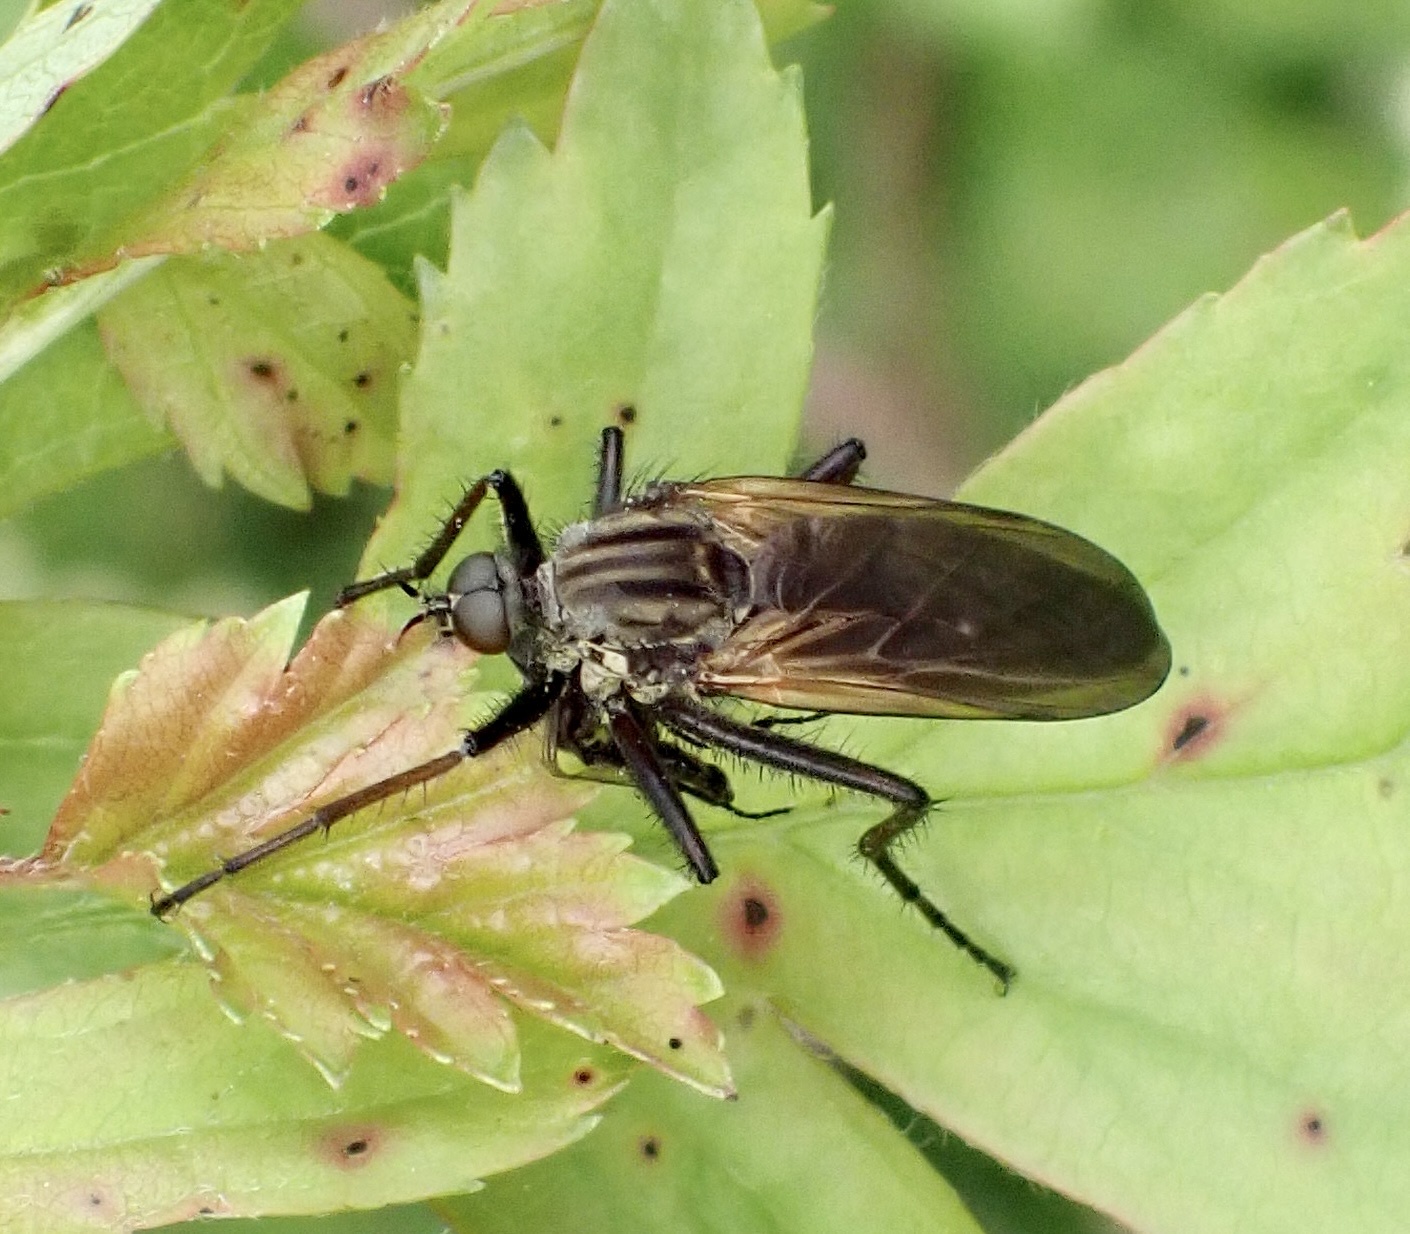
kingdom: Animalia
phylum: Arthropoda
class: Insecta
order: Diptera
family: Empididae
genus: Empis
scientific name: Empis tessellata
